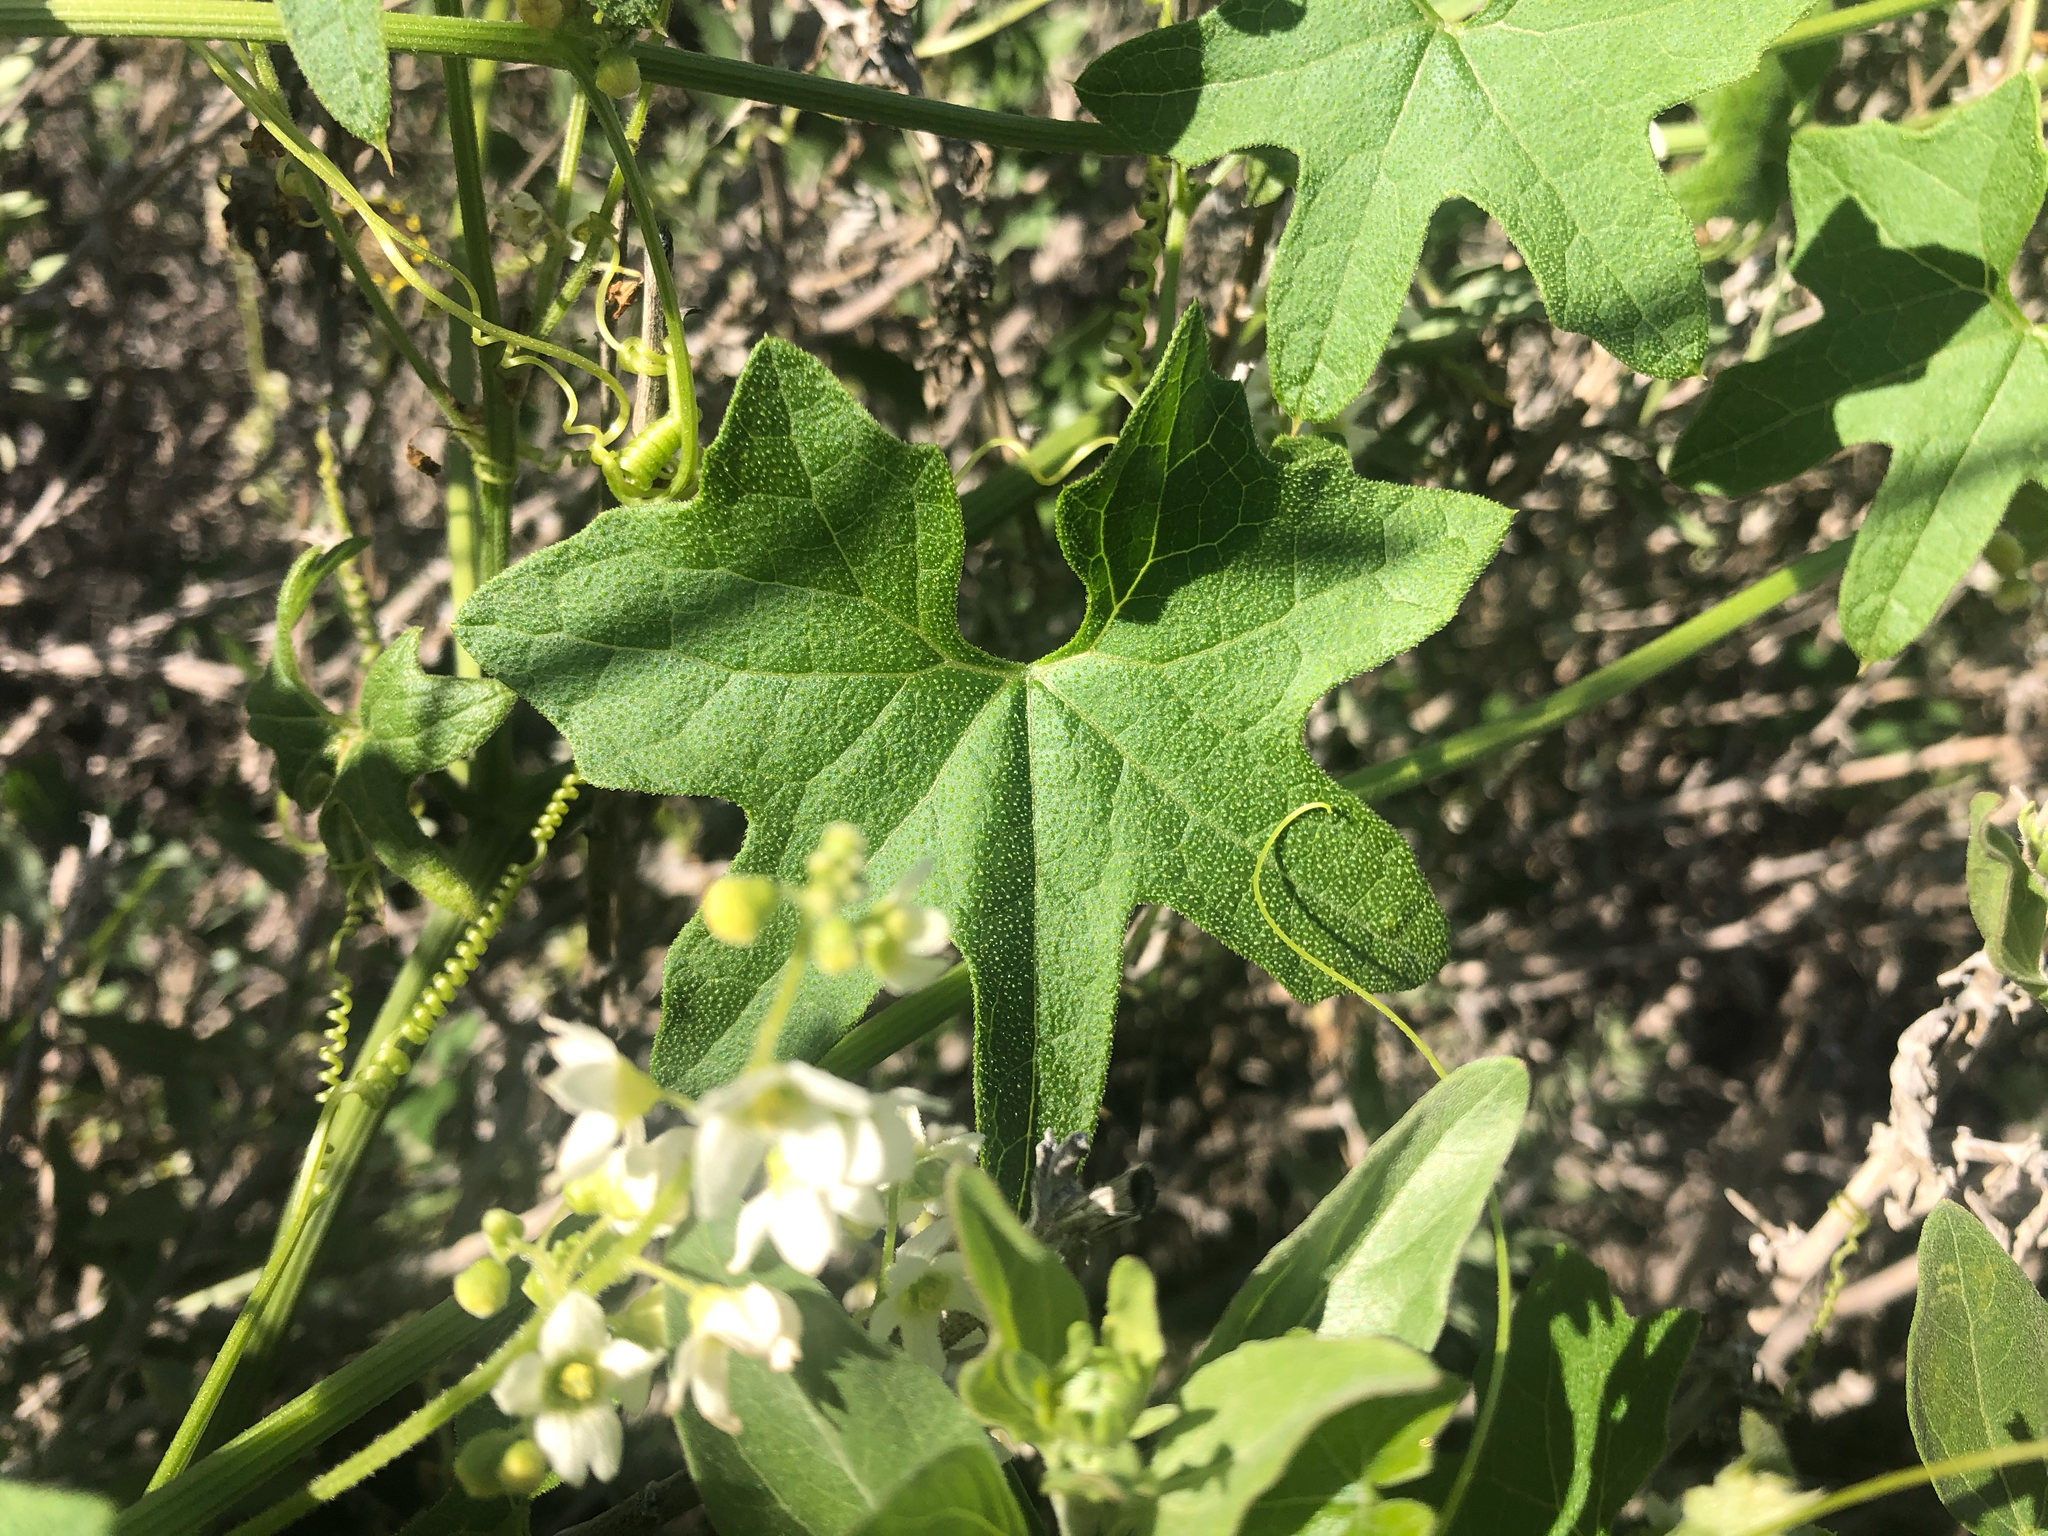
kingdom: Plantae
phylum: Tracheophyta
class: Magnoliopsida
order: Cucurbitales
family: Cucurbitaceae
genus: Marah
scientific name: Marah macrocarpa
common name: Cucamonga manroot
